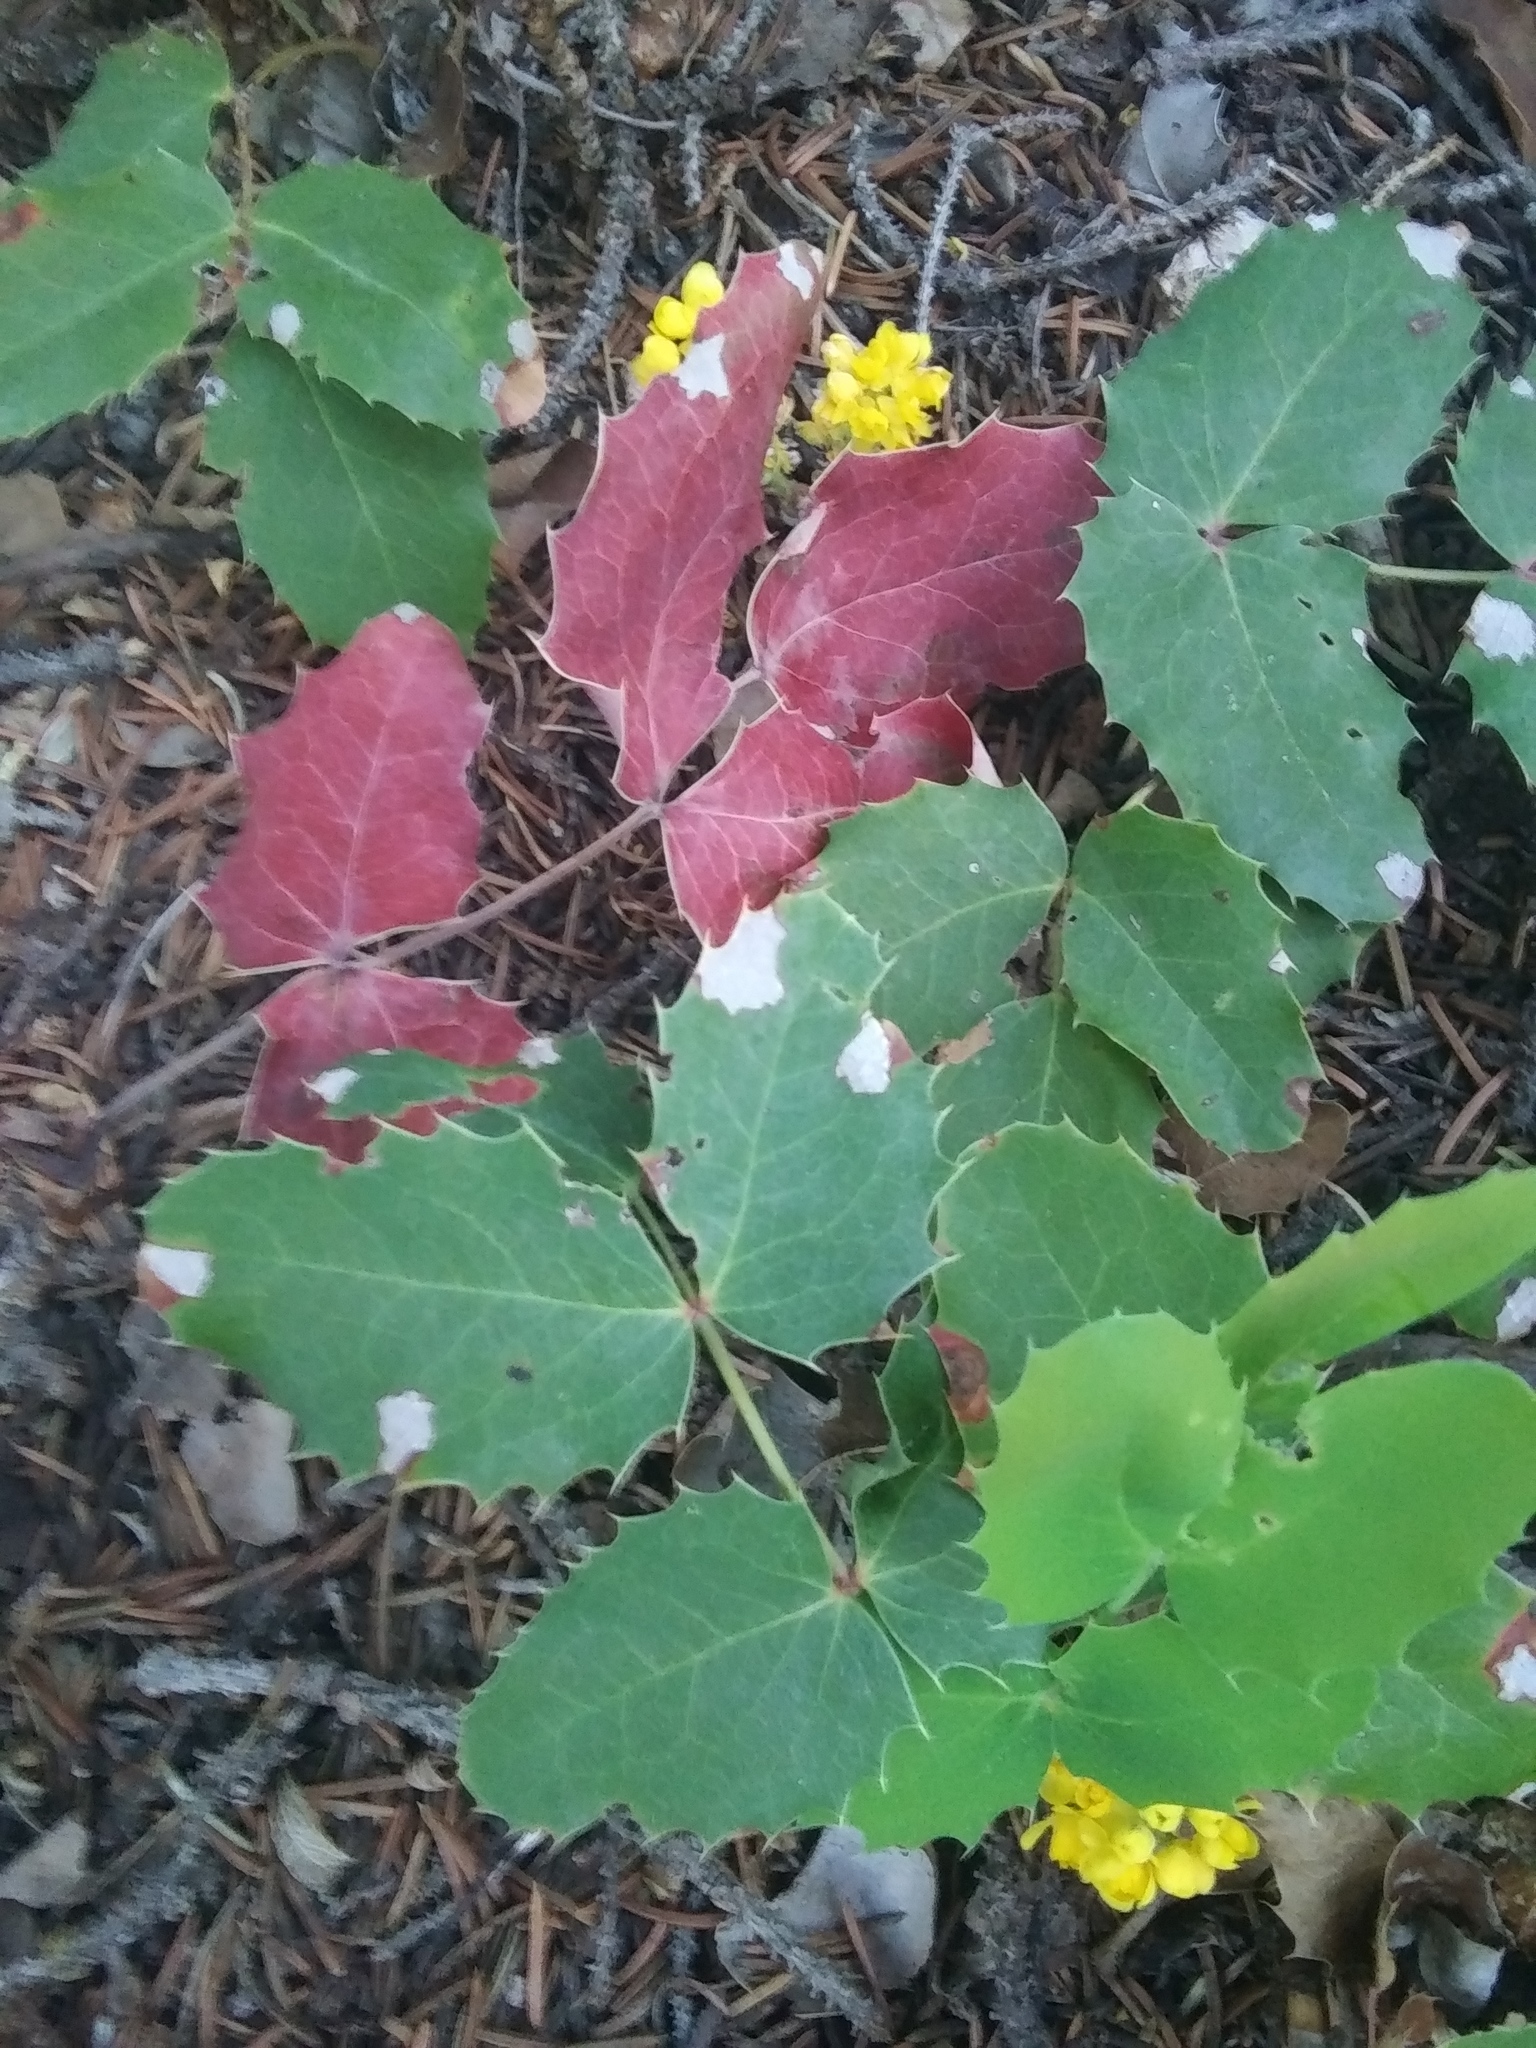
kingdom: Plantae
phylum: Tracheophyta
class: Magnoliopsida
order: Ranunculales
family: Berberidaceae
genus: Mahonia
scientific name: Mahonia repens
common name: Creeping oregon-grape
